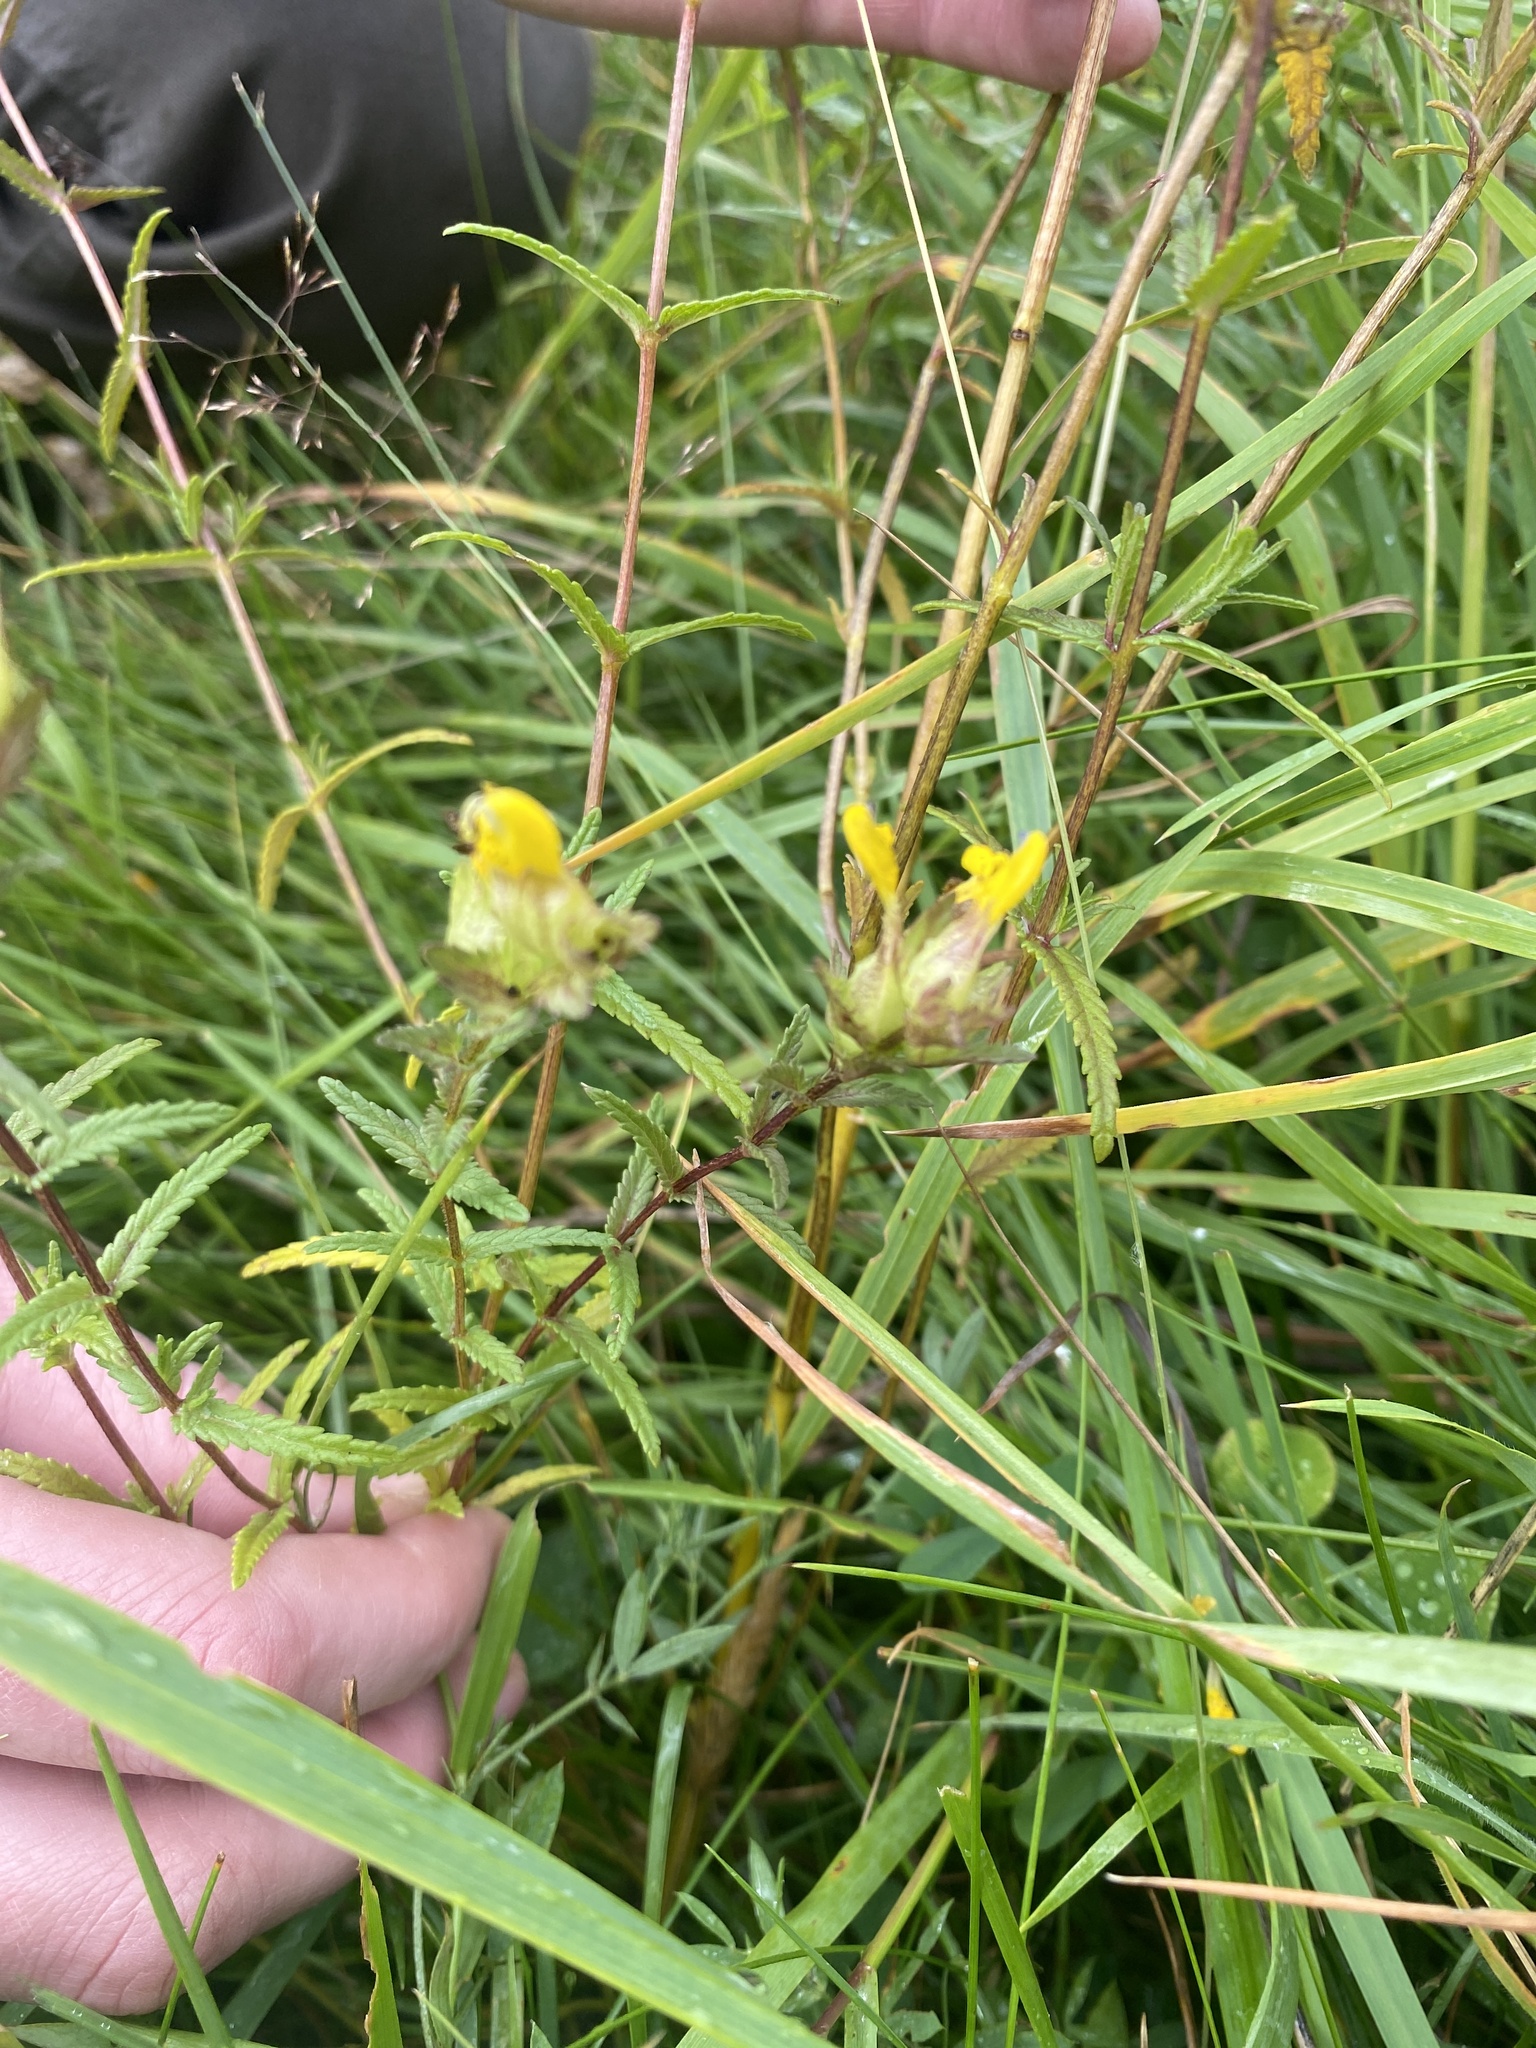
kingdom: Plantae
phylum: Tracheophyta
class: Magnoliopsida
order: Lamiales
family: Orobanchaceae
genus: Rhinanthus
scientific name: Rhinanthus minor
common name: Yellow-rattle
